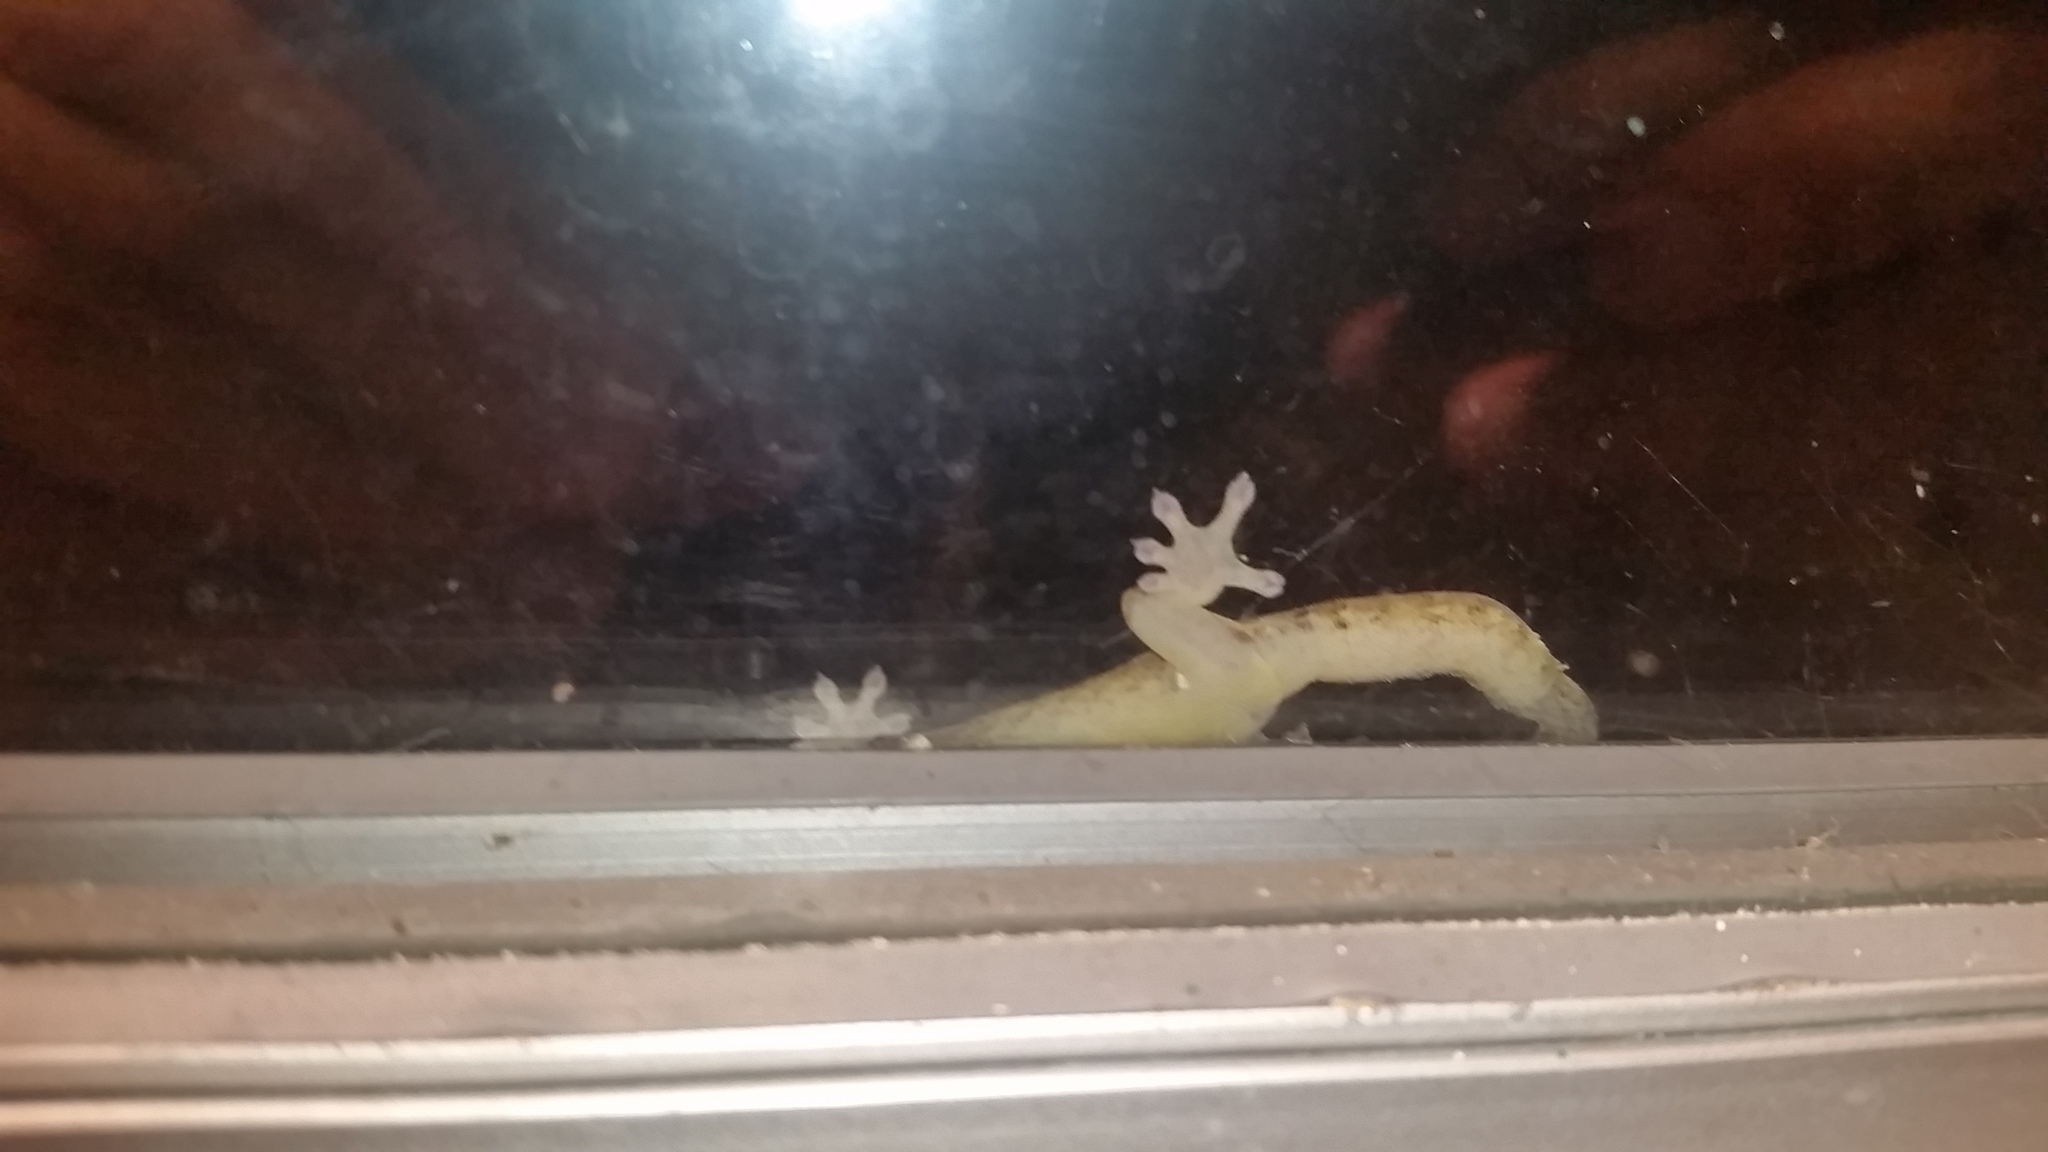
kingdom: Animalia
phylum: Chordata
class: Squamata
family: Gekkonidae
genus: Lepidodactylus
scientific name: Lepidodactylus lugubris
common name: Mourning gecko
